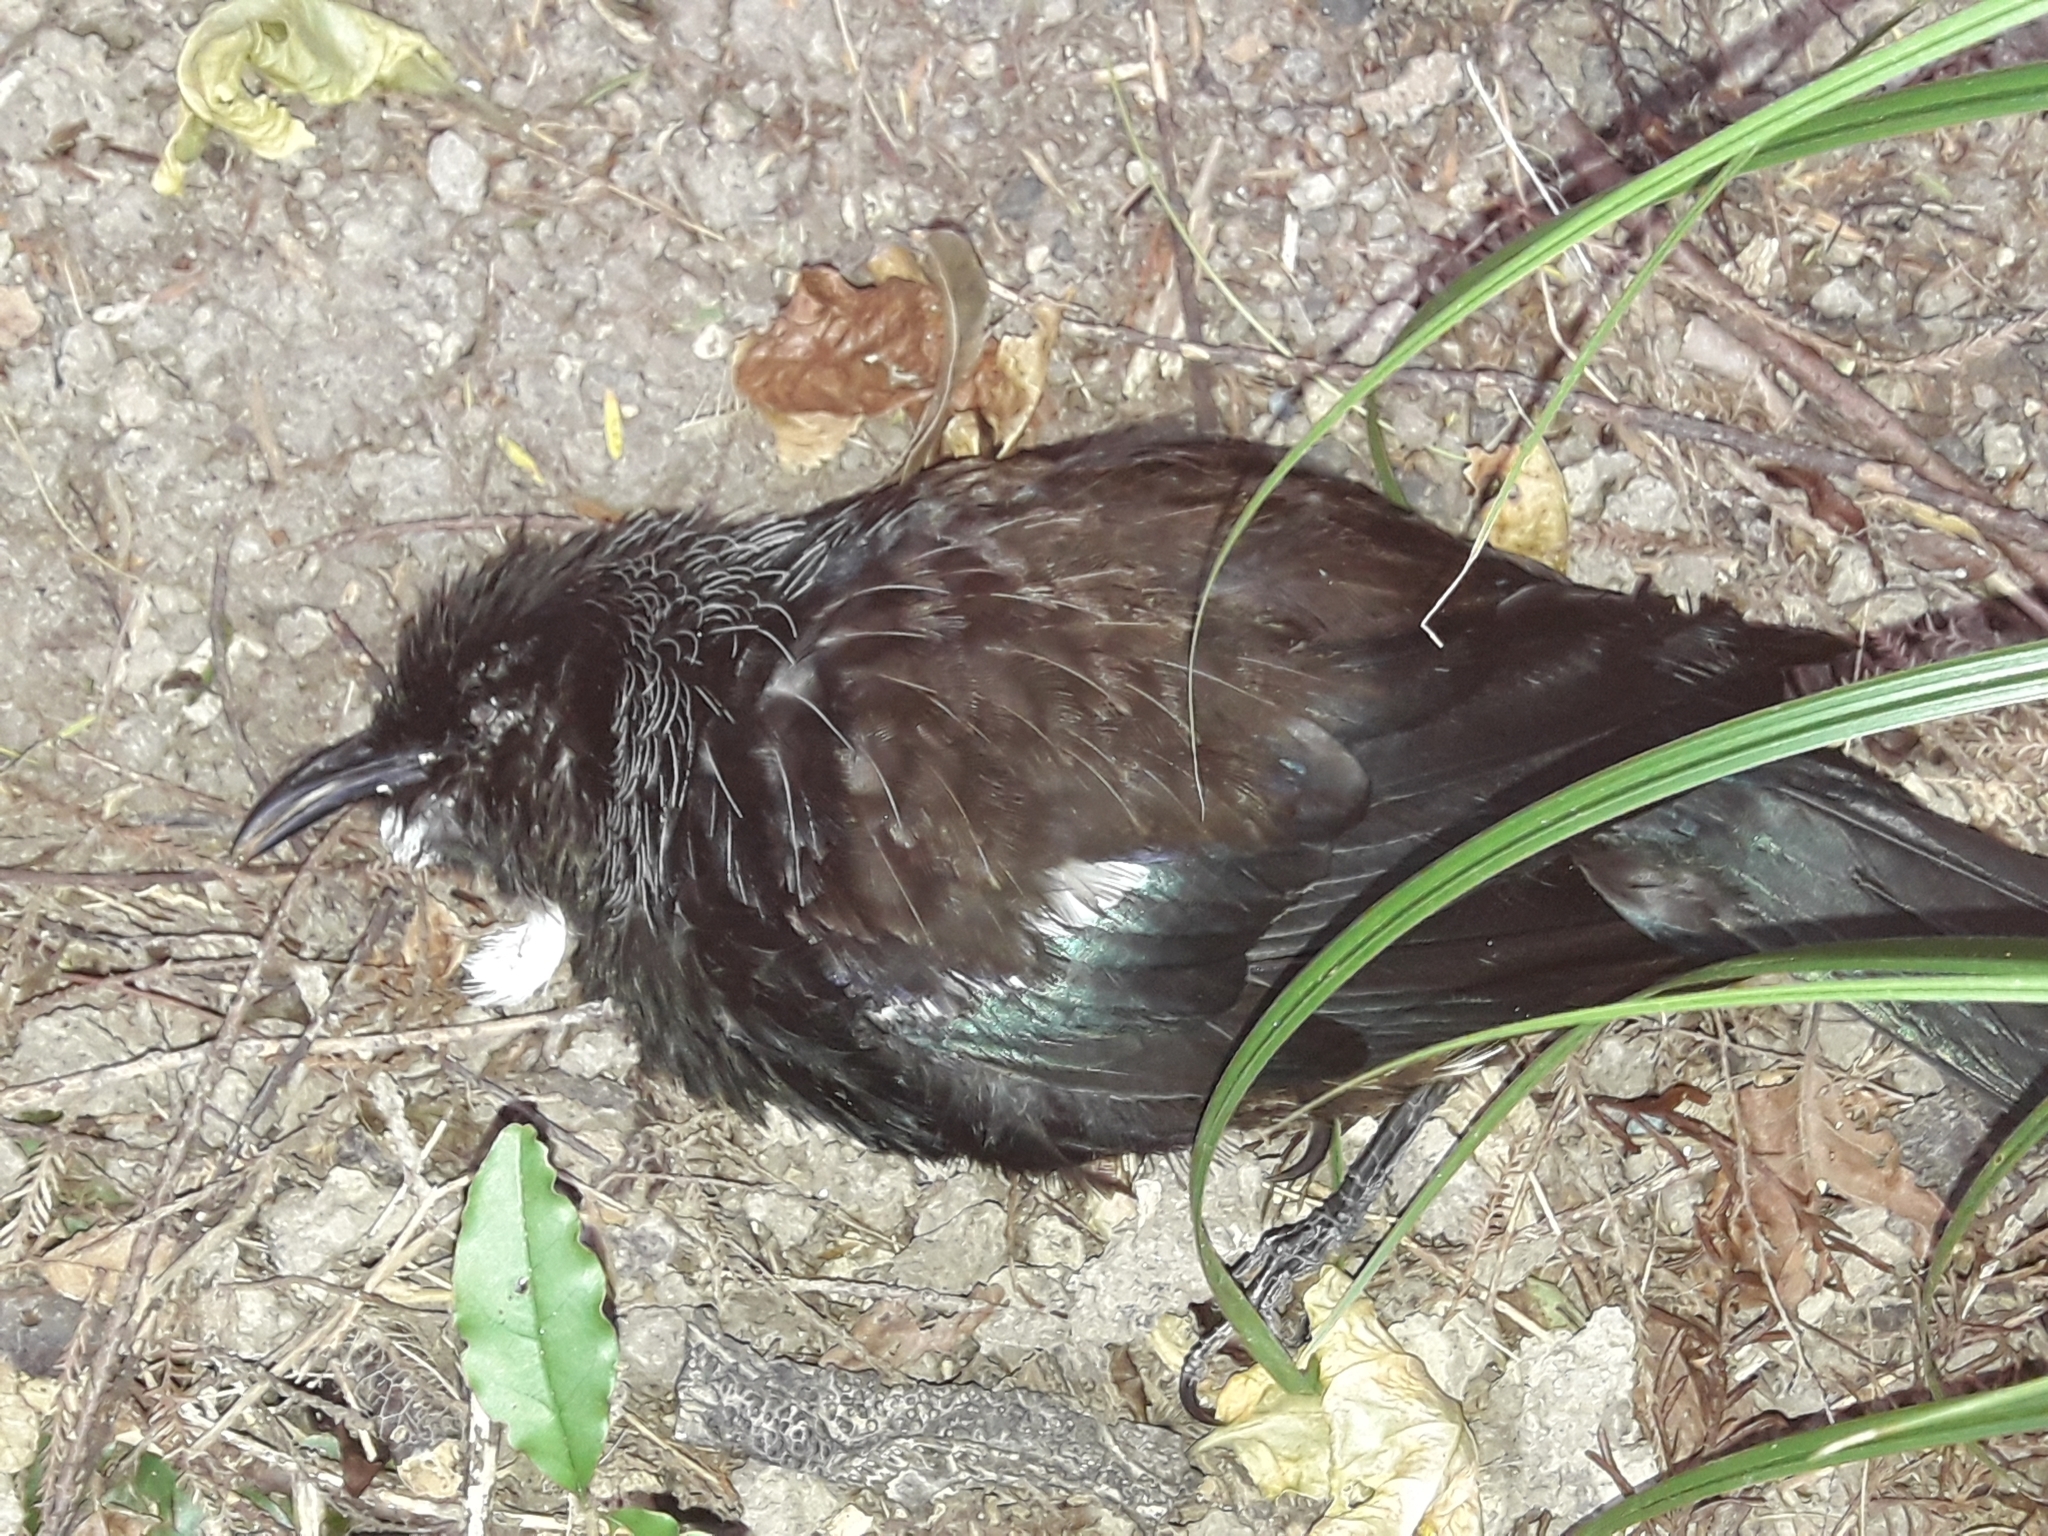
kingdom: Animalia
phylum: Chordata
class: Aves
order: Passeriformes
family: Meliphagidae
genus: Prosthemadera
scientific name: Prosthemadera novaeseelandiae
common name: Tui
